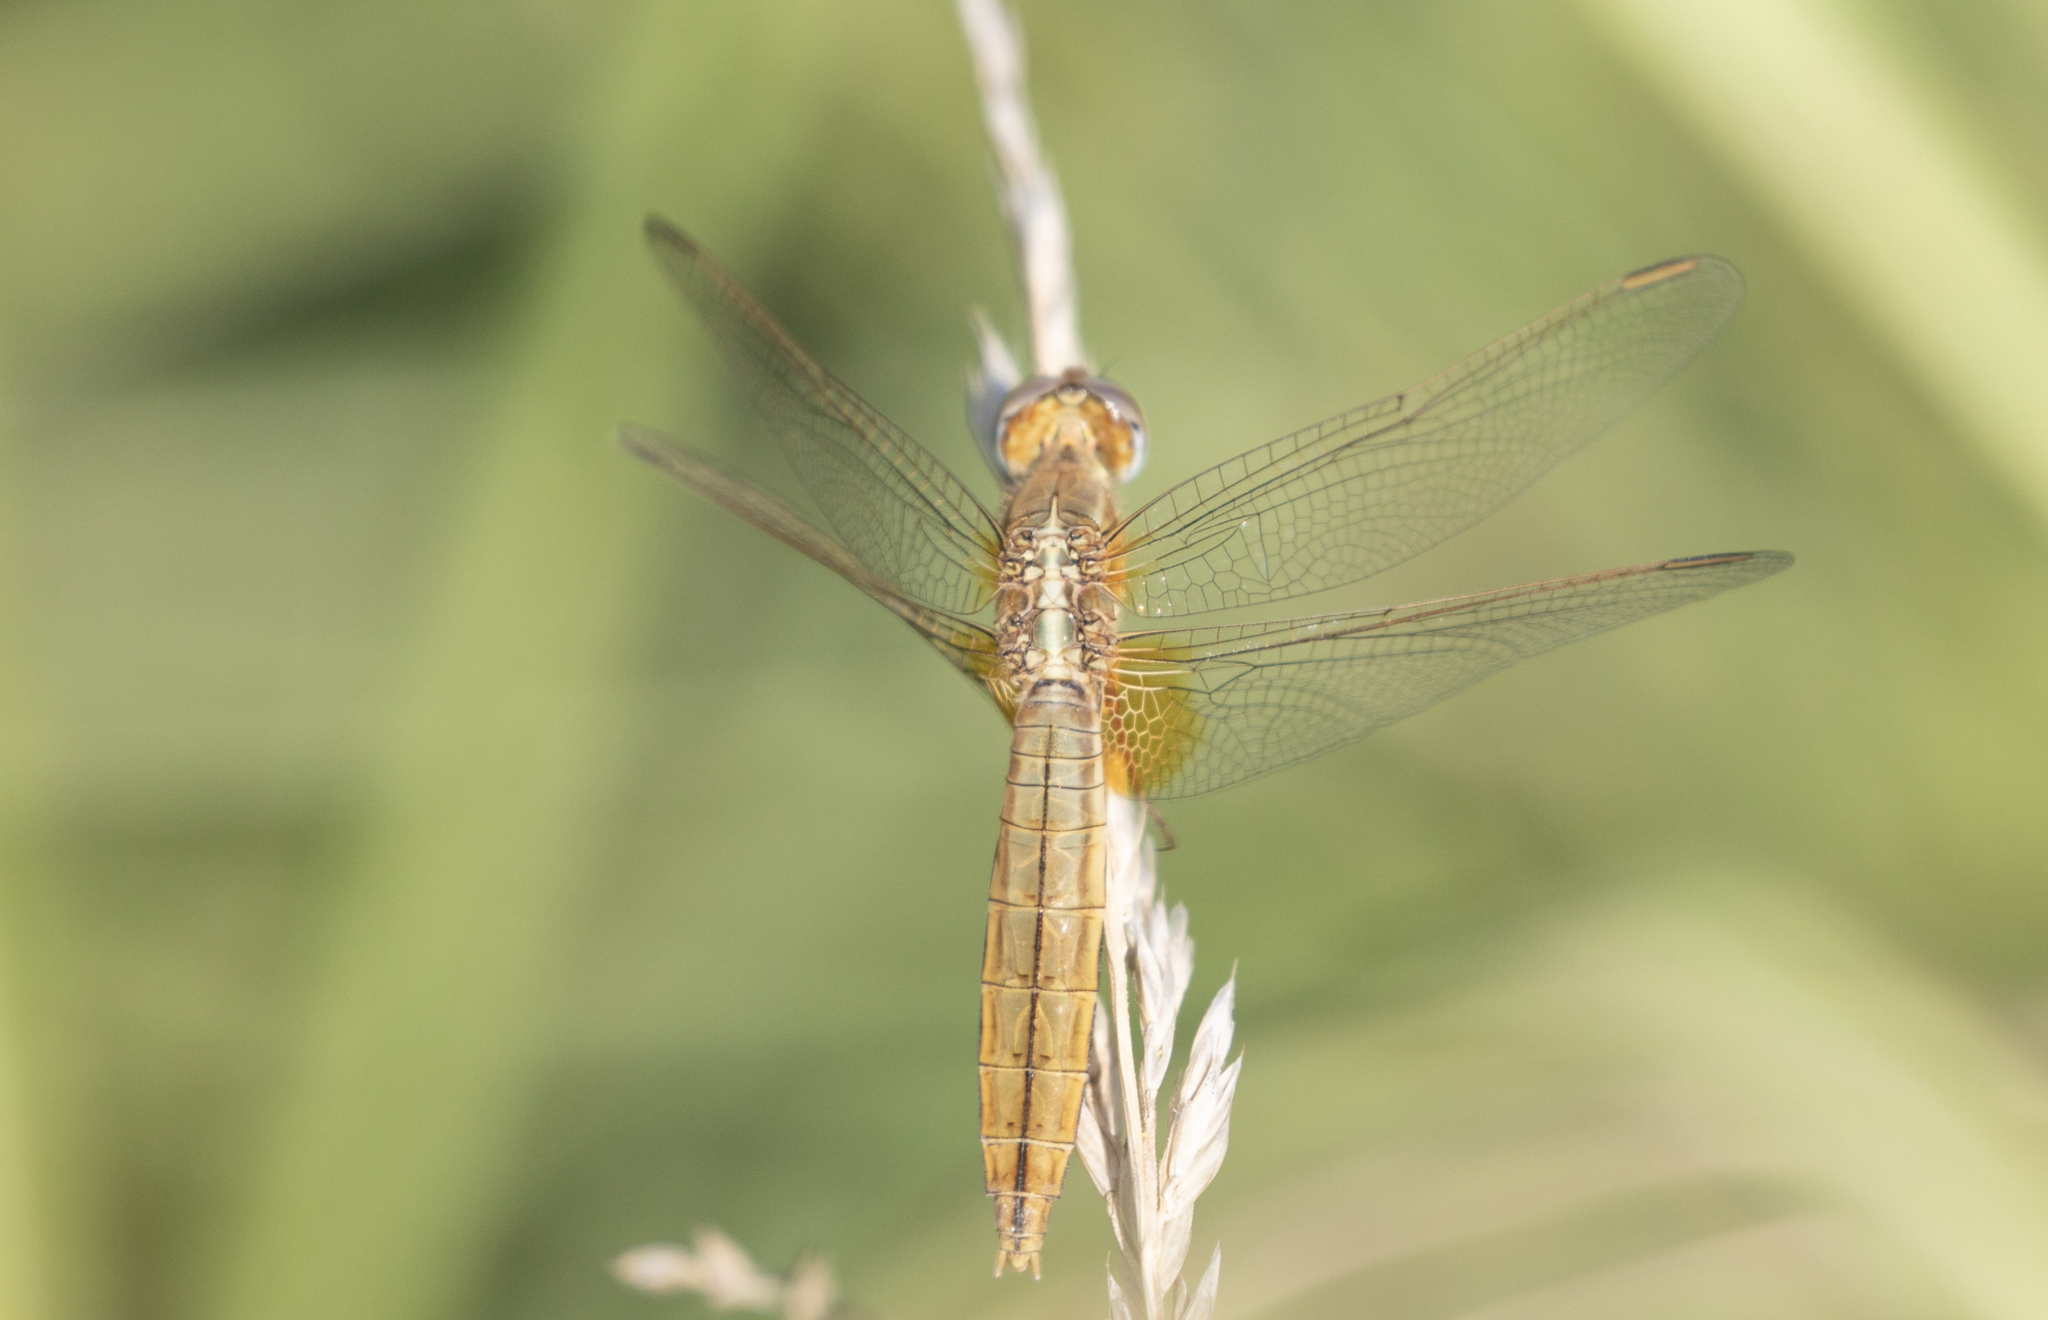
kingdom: Animalia
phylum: Arthropoda
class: Insecta
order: Odonata
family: Libellulidae
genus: Crocothemis
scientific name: Crocothemis erythraea
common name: Scarlet dragonfly
